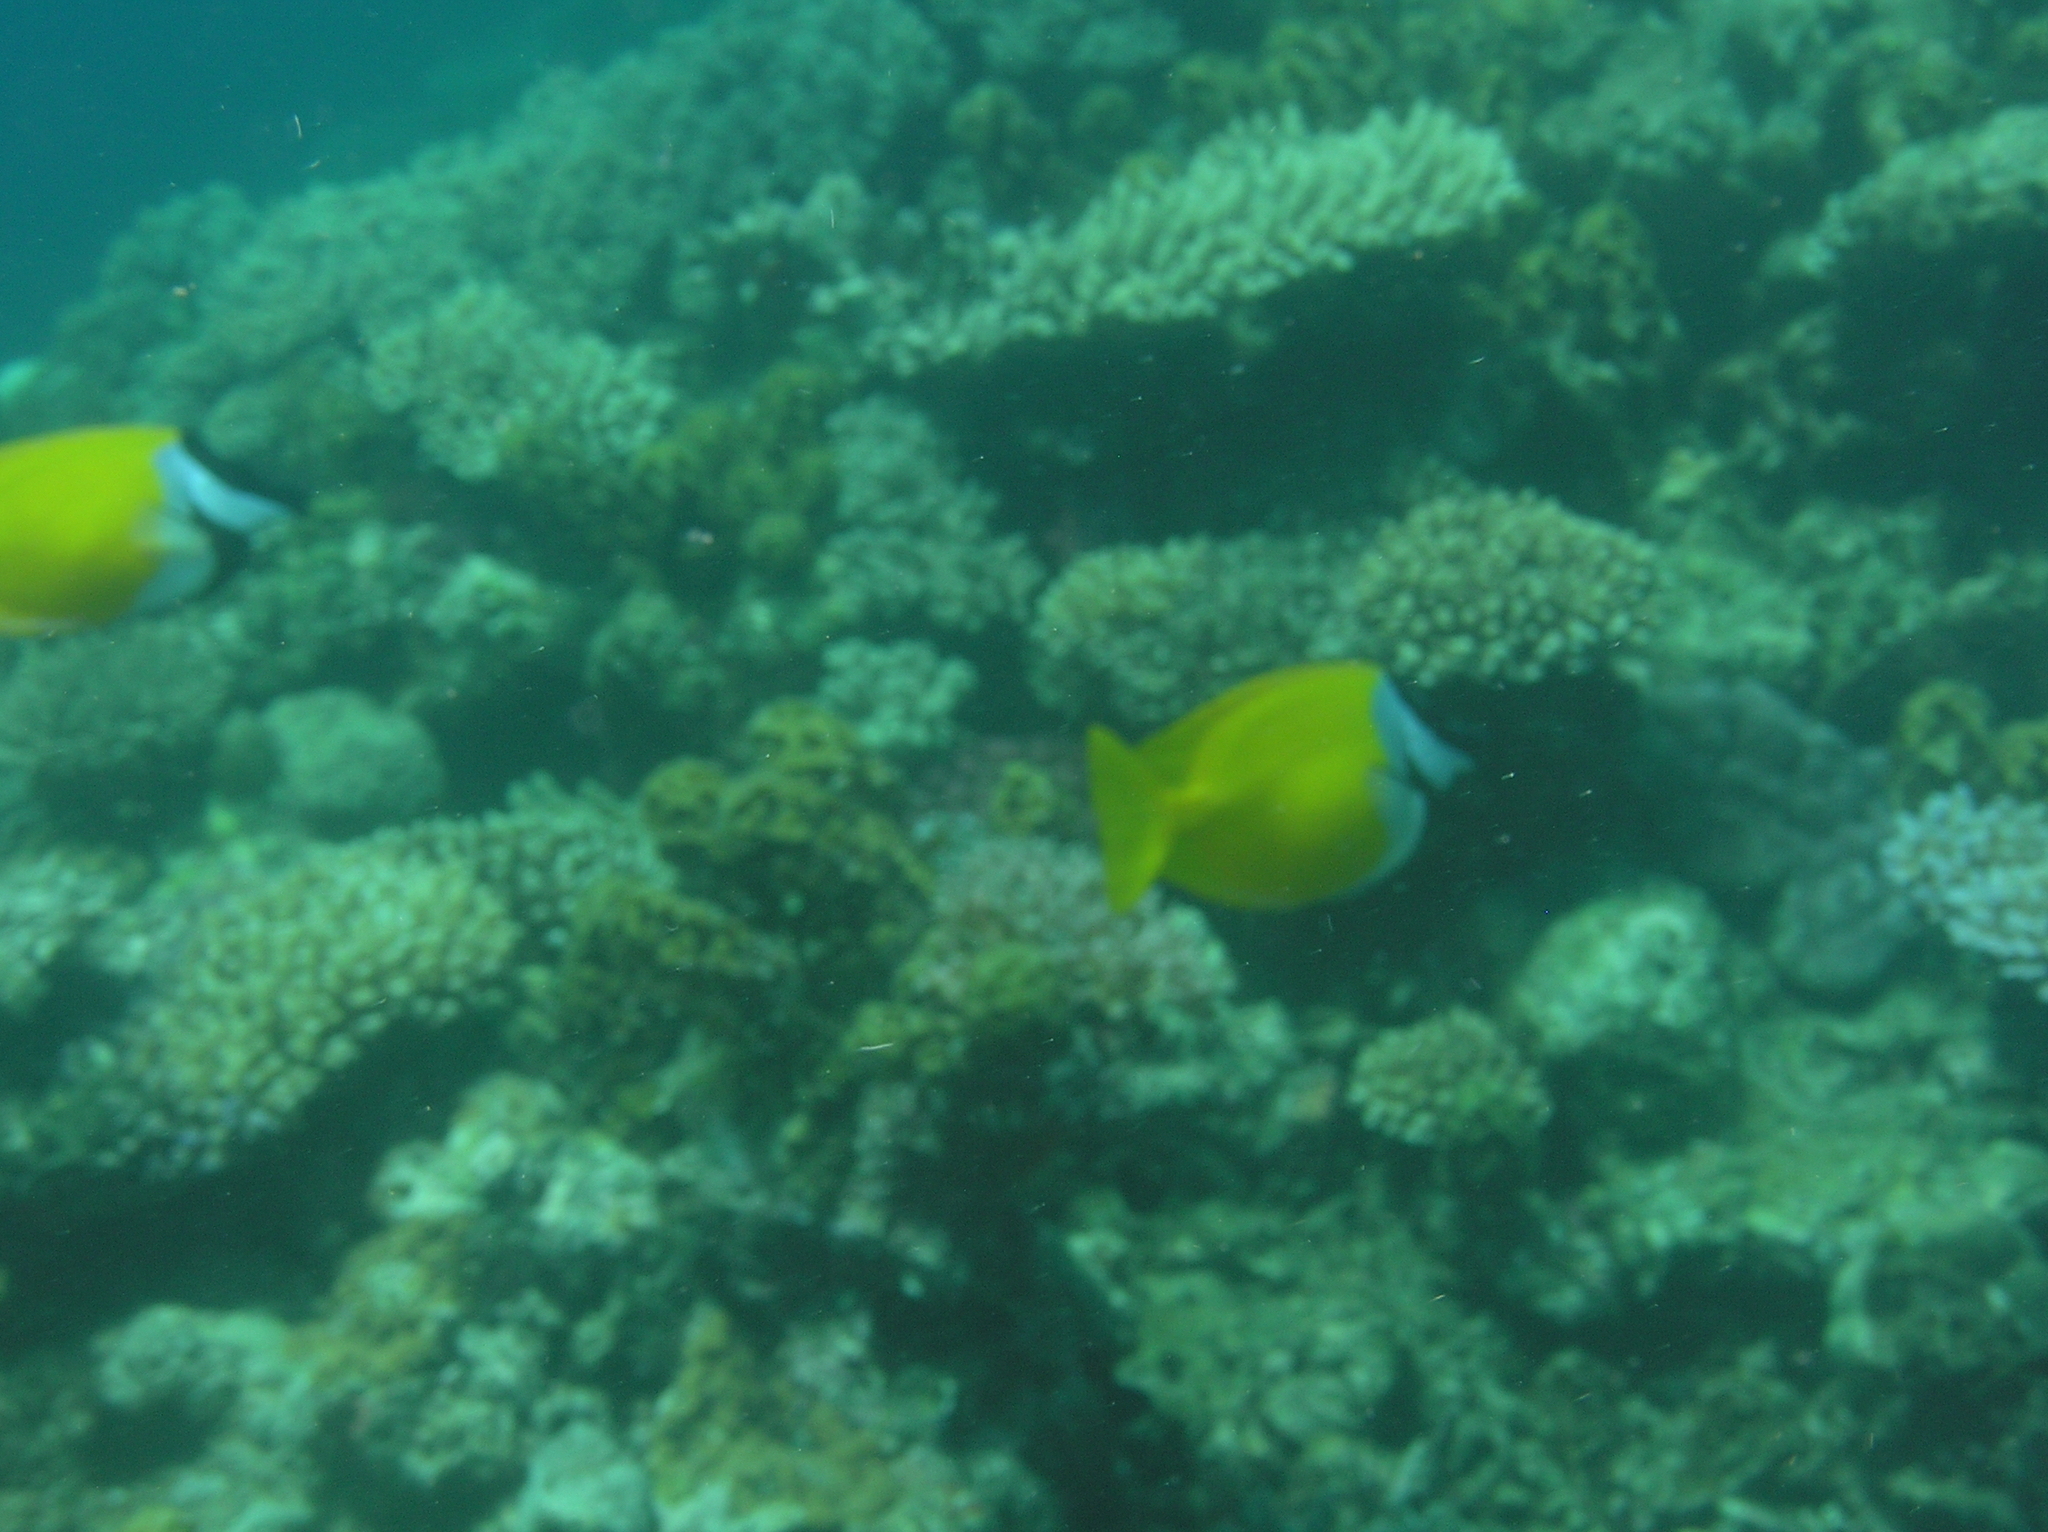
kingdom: Animalia
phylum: Chordata
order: Perciformes
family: Siganidae
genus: Siganus
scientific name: Siganus vulpinus
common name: Foxface
